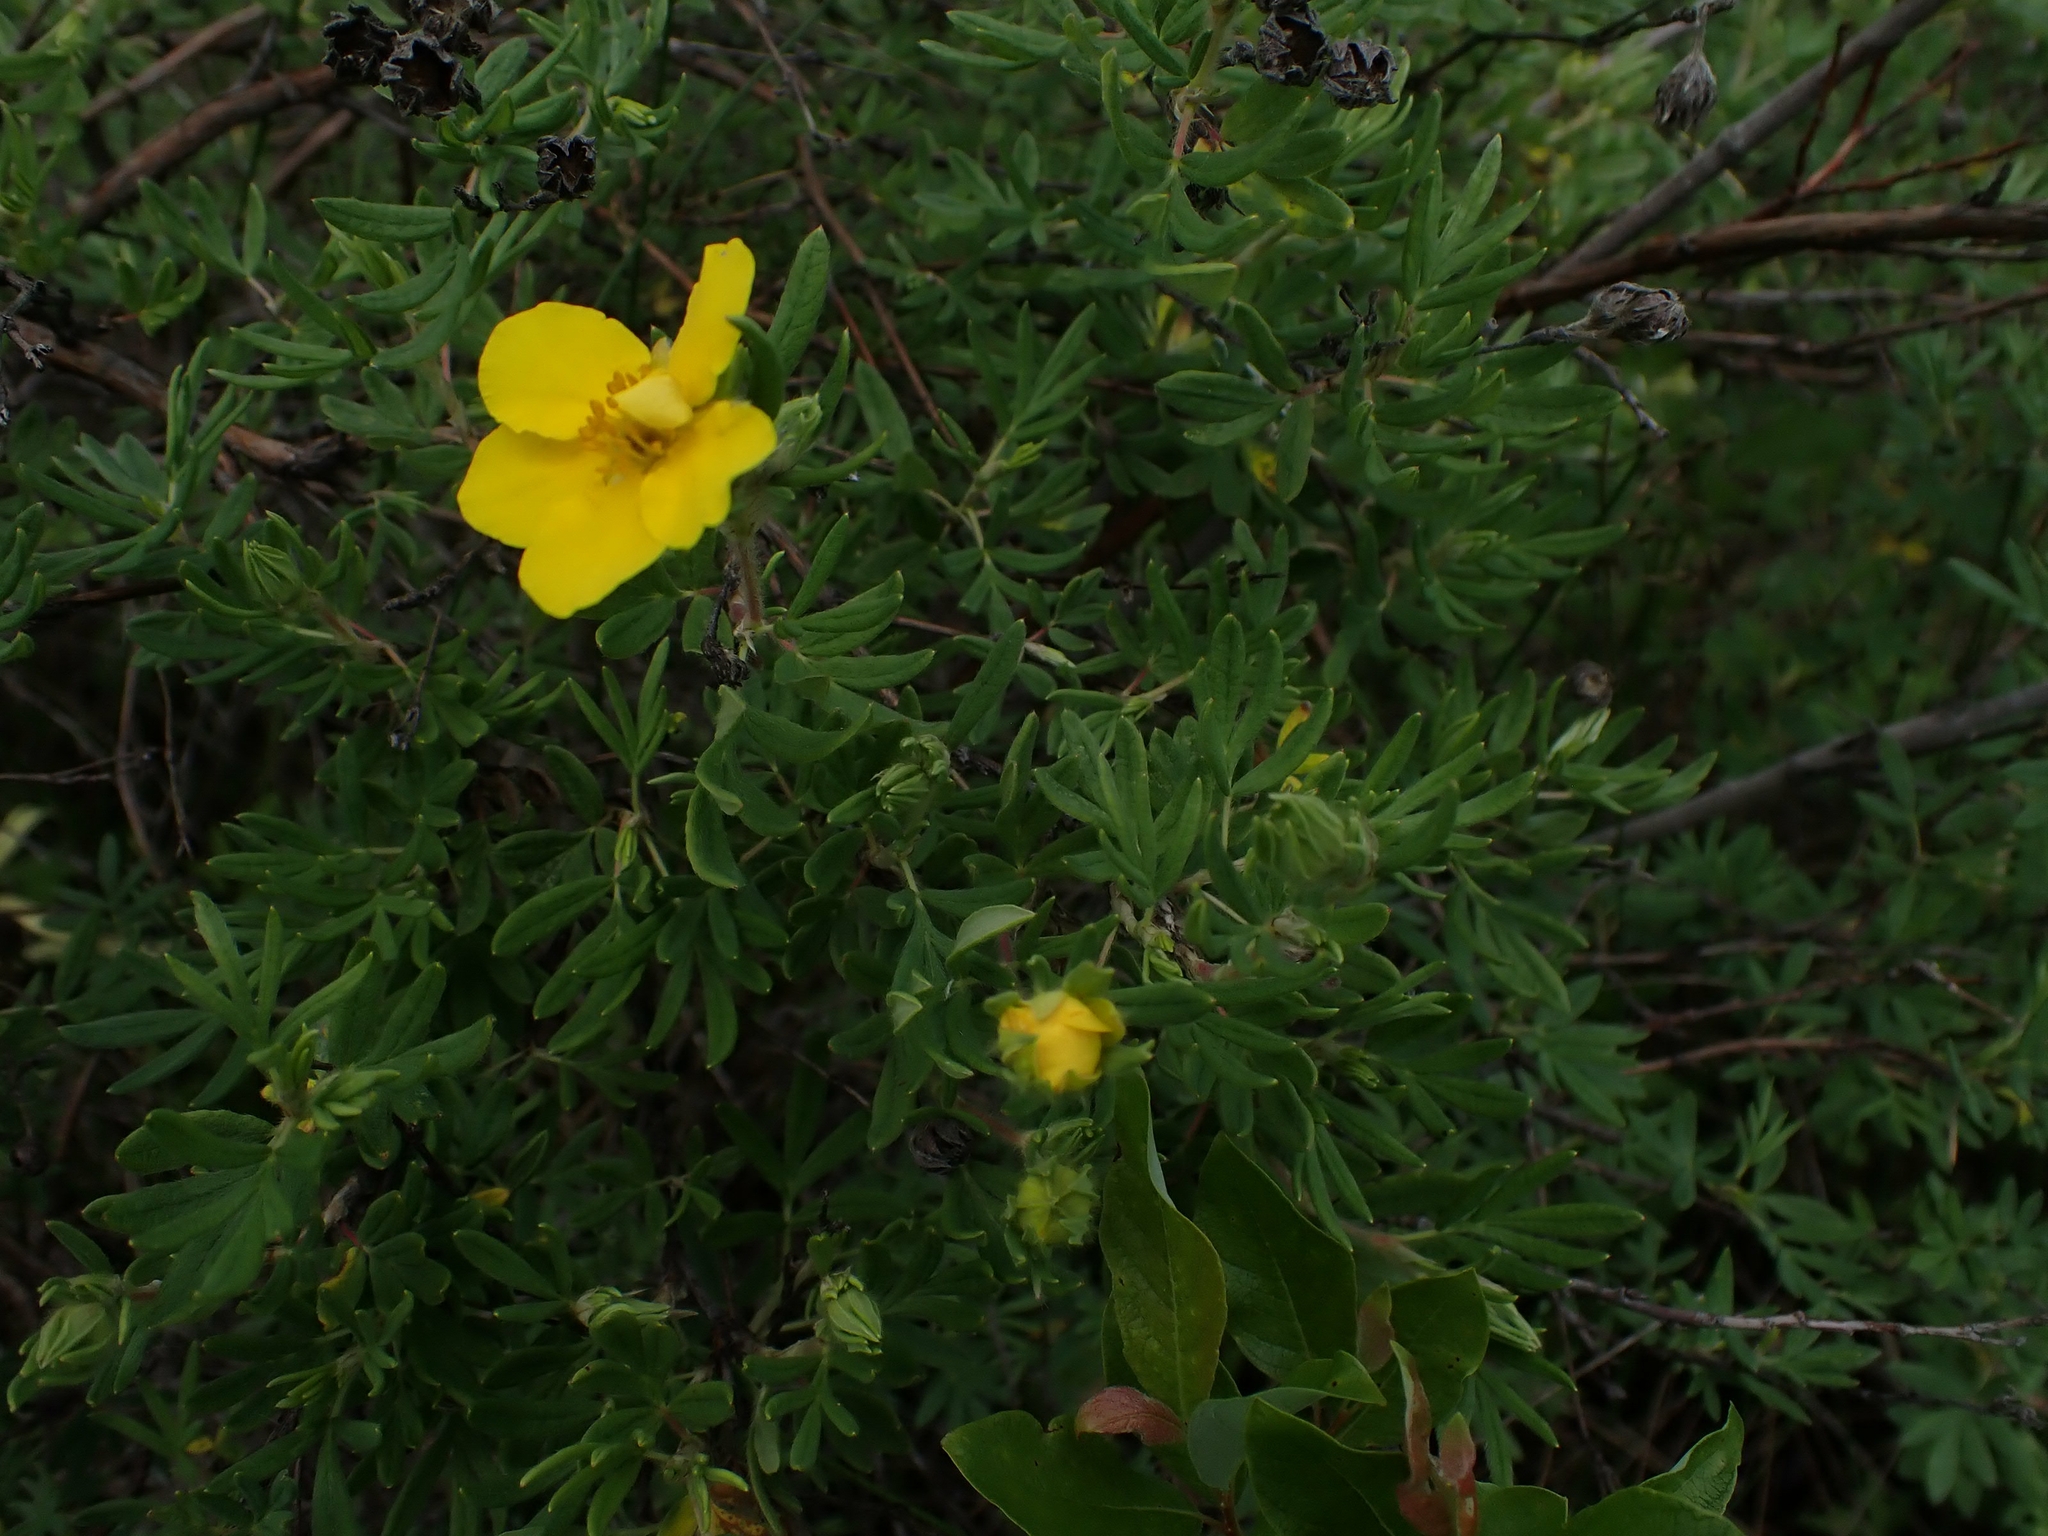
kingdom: Plantae
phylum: Tracheophyta
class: Magnoliopsida
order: Rosales
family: Rosaceae
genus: Dasiphora
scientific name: Dasiphora fruticosa
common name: Shrubby cinquefoil
